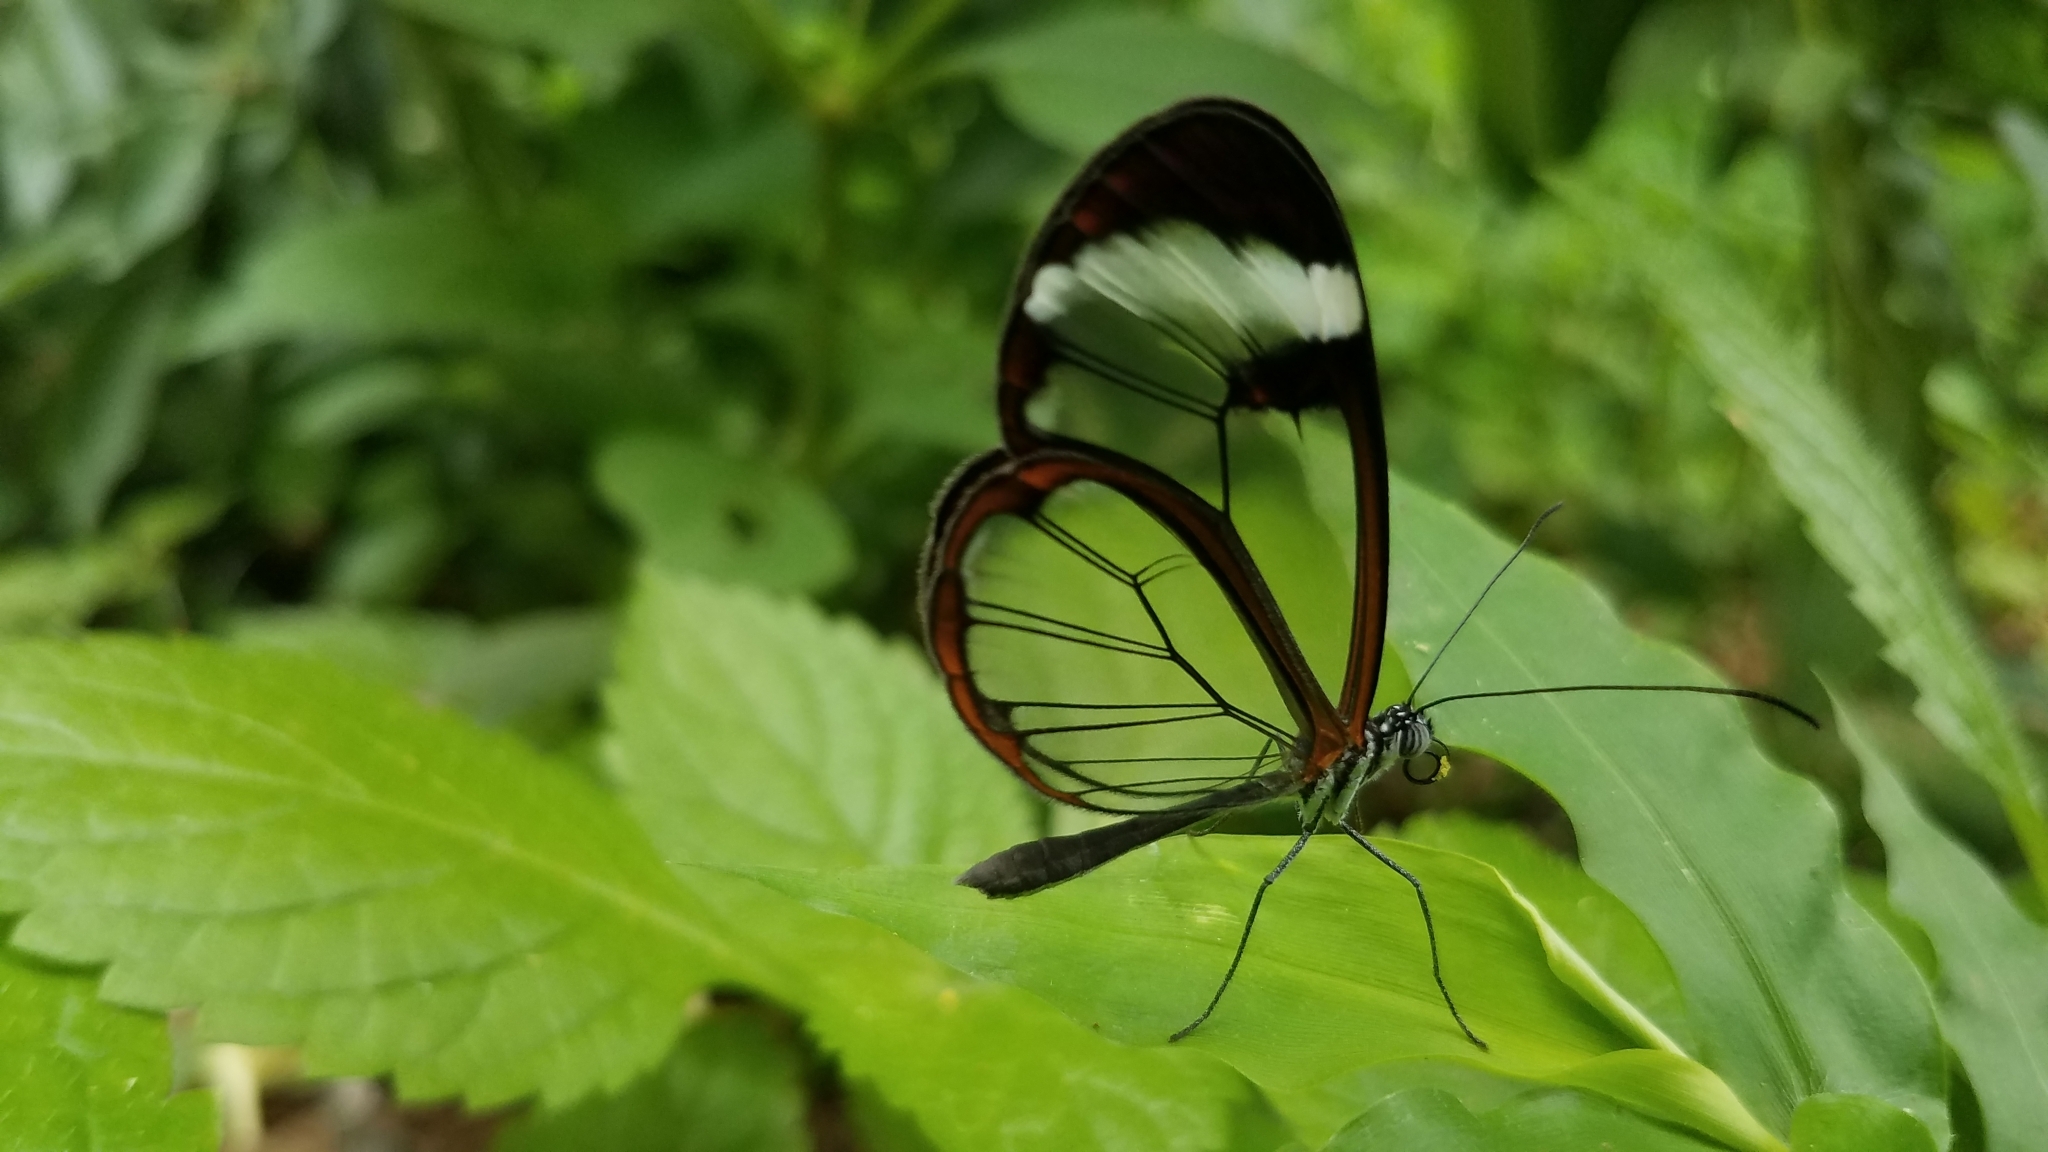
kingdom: Animalia
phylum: Arthropoda
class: Insecta
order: Lepidoptera
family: Nymphalidae
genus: Greta
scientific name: Greta morgane
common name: Thick-tipped greta
